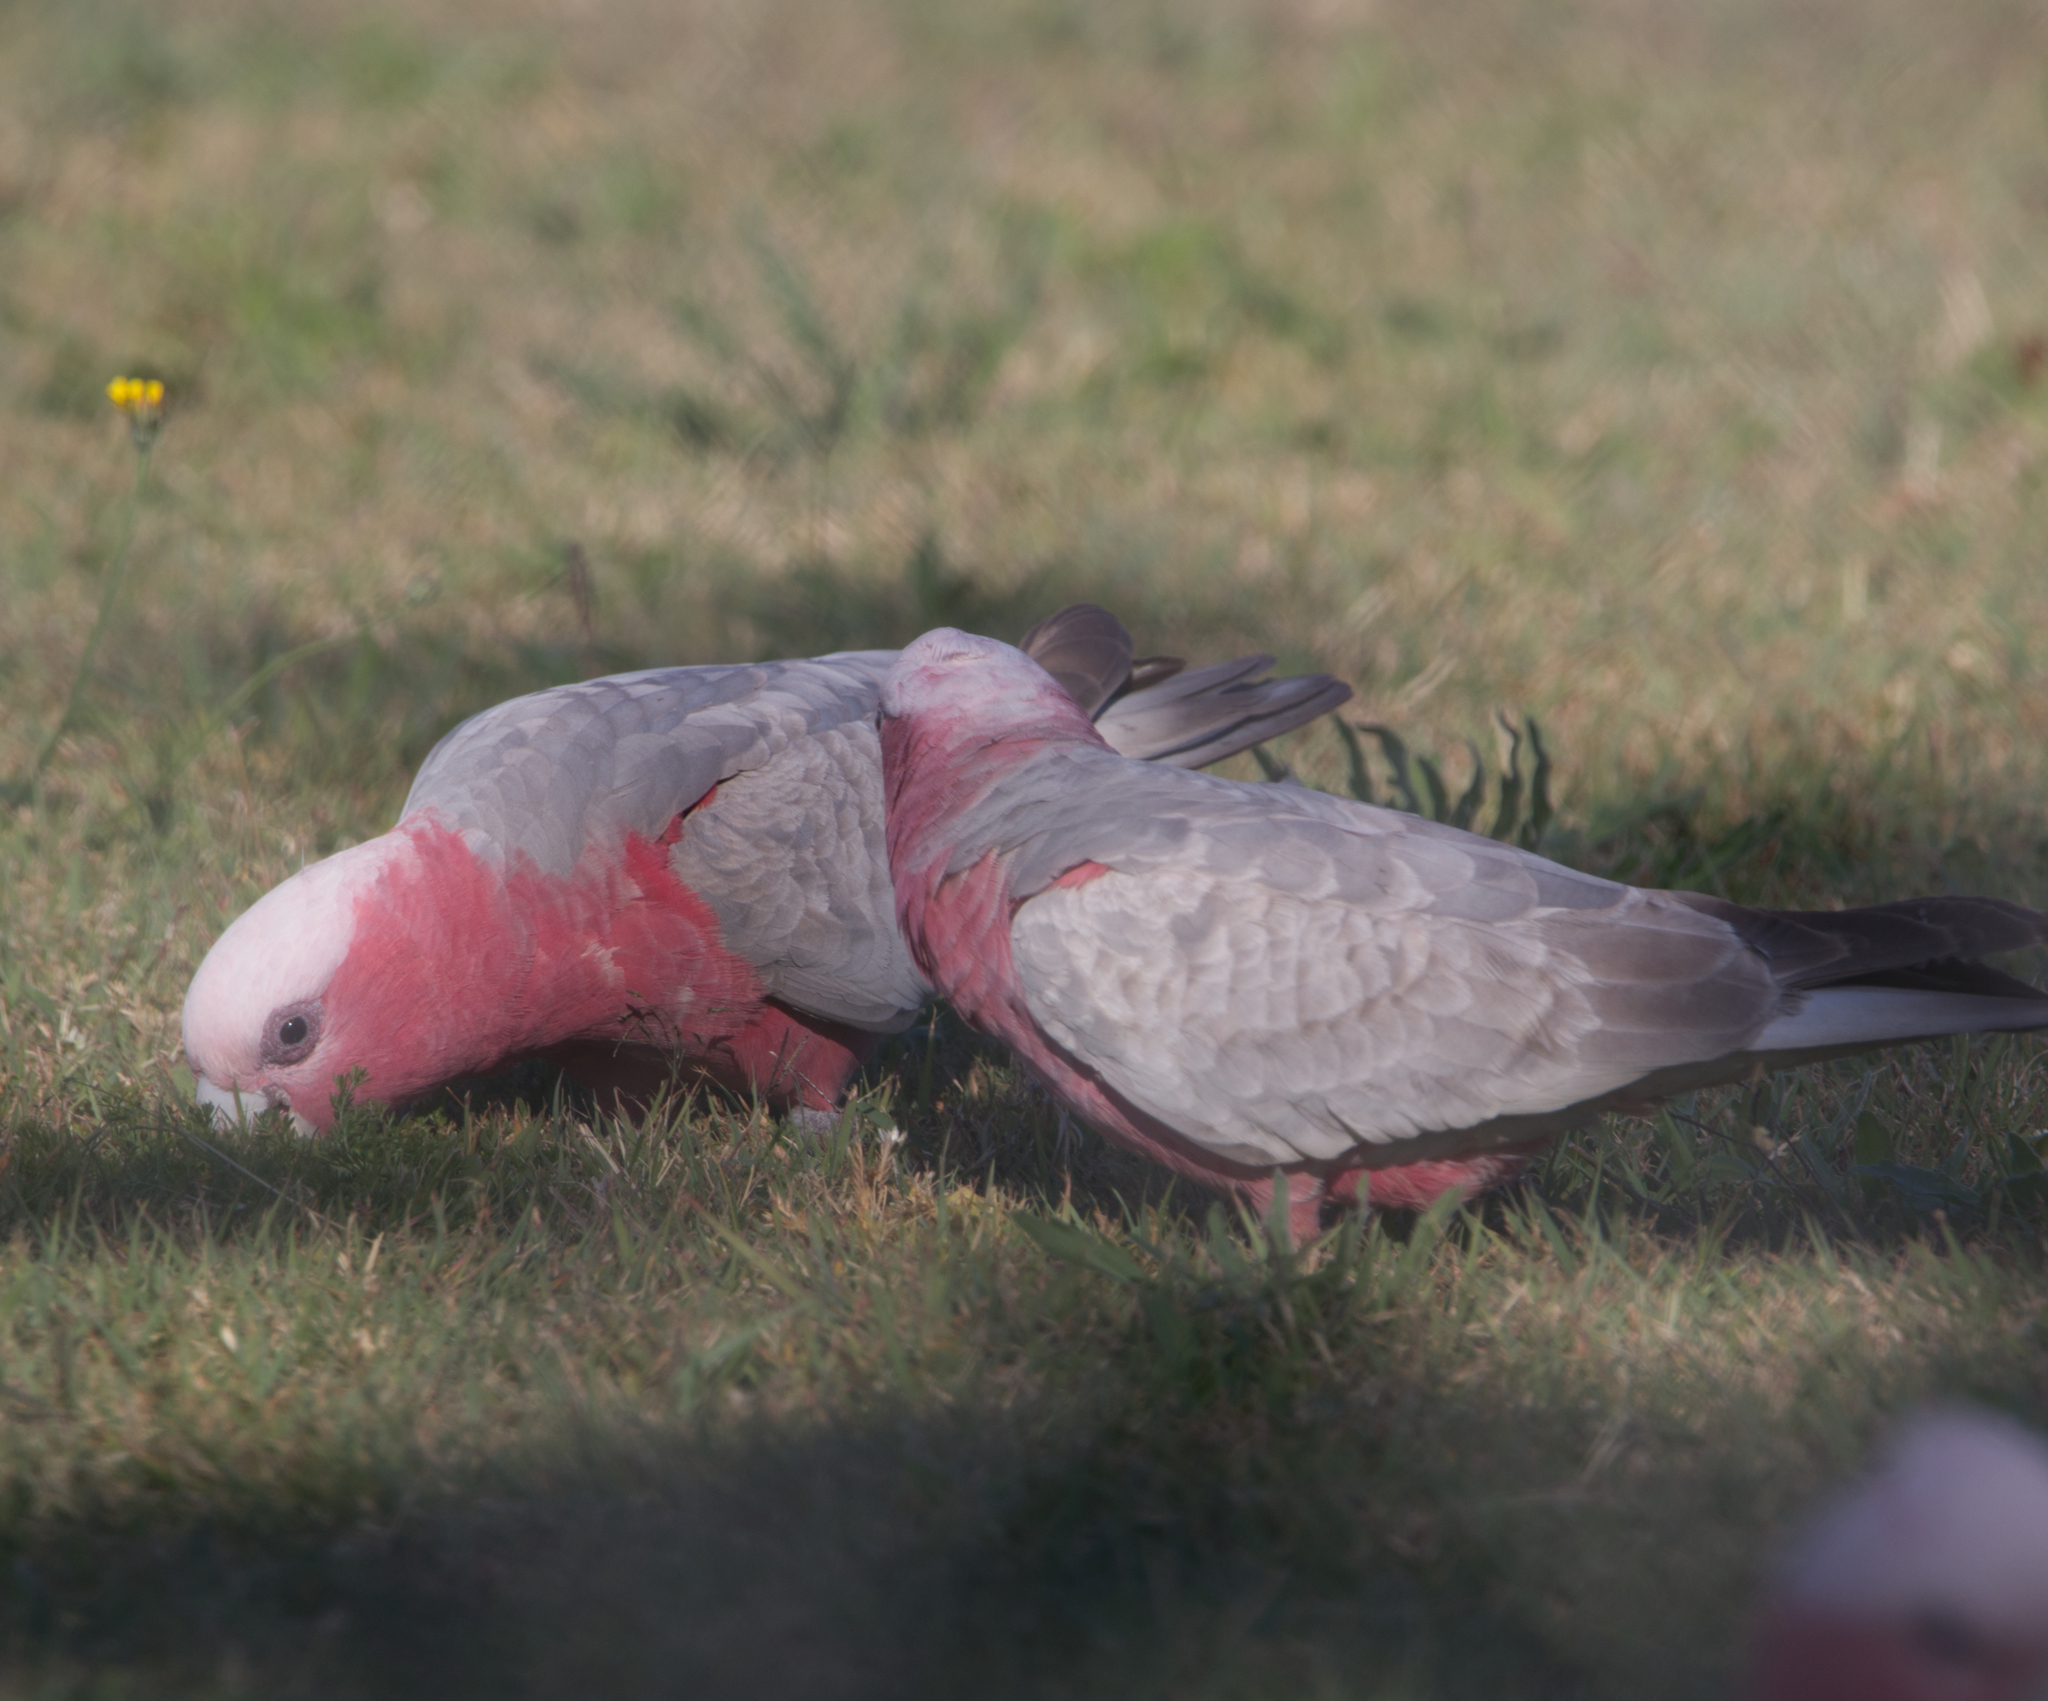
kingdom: Animalia
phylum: Chordata
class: Aves
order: Psittaciformes
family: Psittacidae
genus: Eolophus
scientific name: Eolophus roseicapilla
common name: Galah
